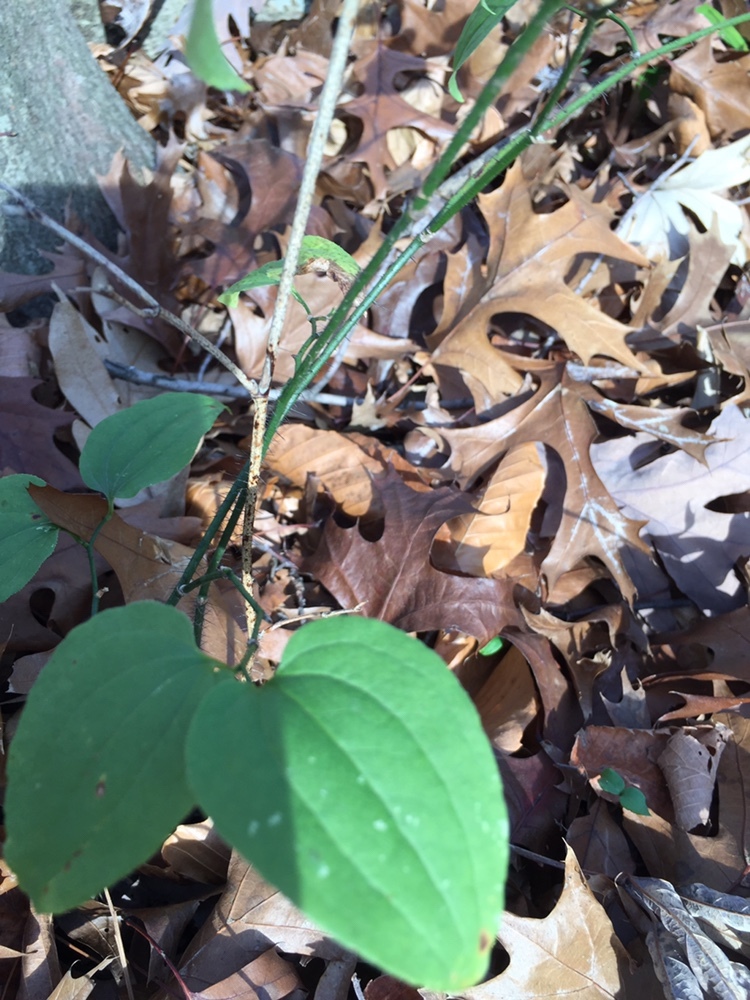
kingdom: Plantae
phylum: Tracheophyta
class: Liliopsida
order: Liliales
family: Smilacaceae
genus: Smilax
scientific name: Smilax tamnoides
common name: Hellfetter
